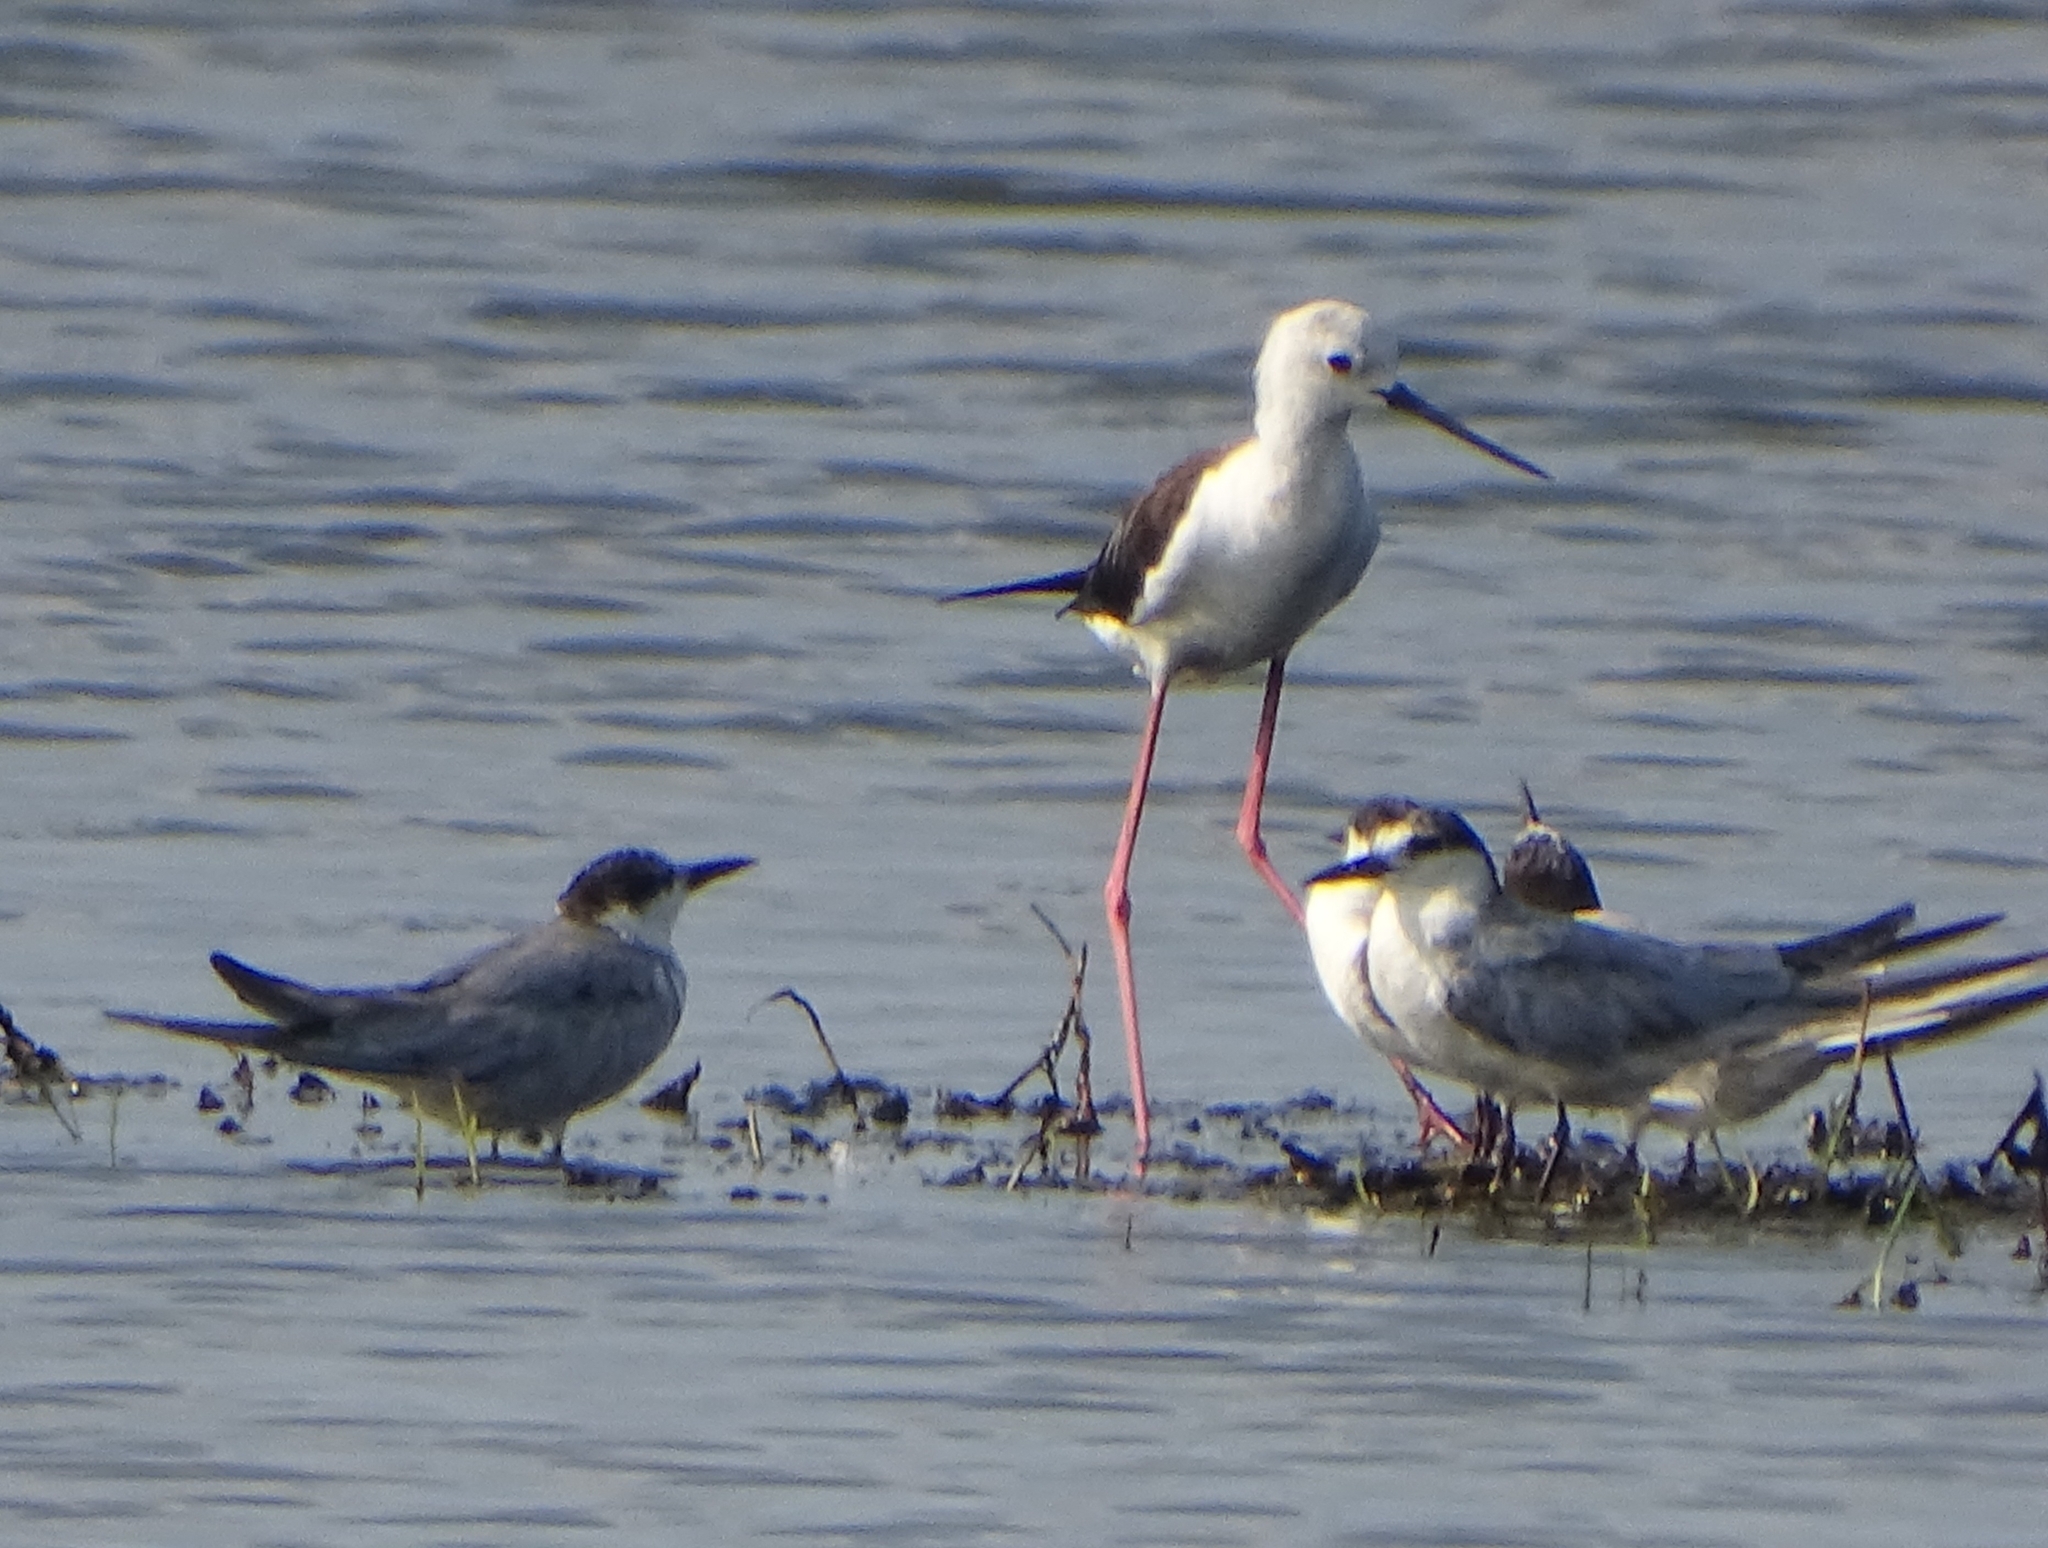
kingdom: Animalia
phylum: Chordata
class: Aves
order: Charadriiformes
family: Recurvirostridae
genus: Himantopus
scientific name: Himantopus himantopus
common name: Black-winged stilt
